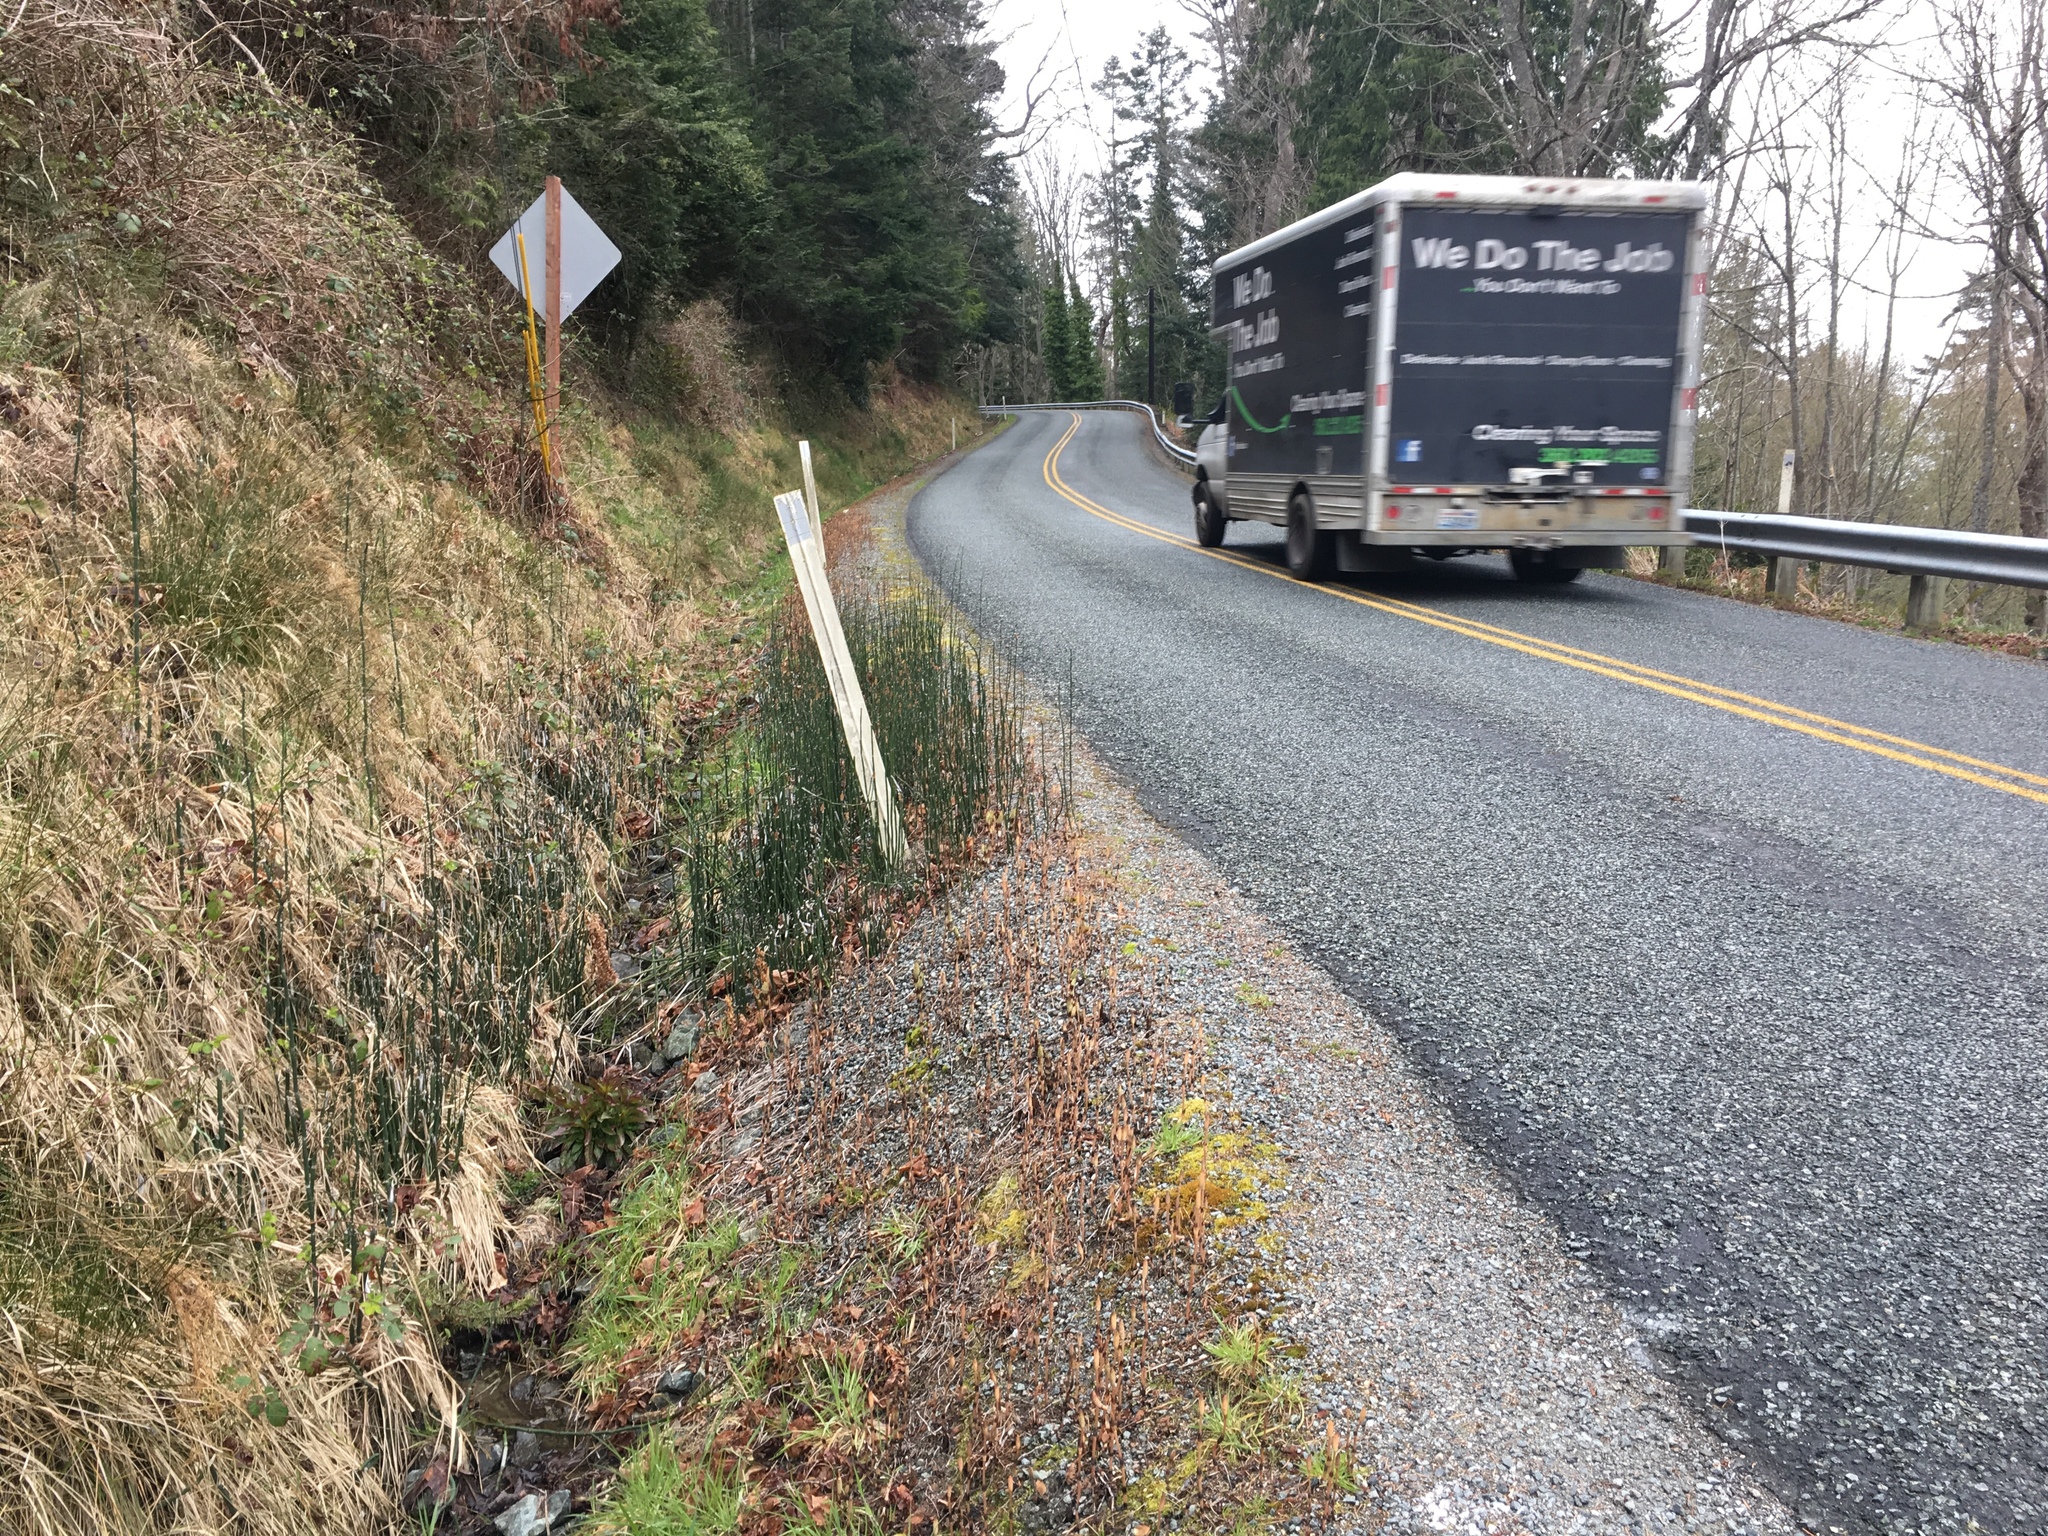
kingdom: Plantae
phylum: Tracheophyta
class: Polypodiopsida
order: Equisetales
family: Equisetaceae
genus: Equisetum
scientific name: Equisetum hyemale
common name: Rough horsetail
